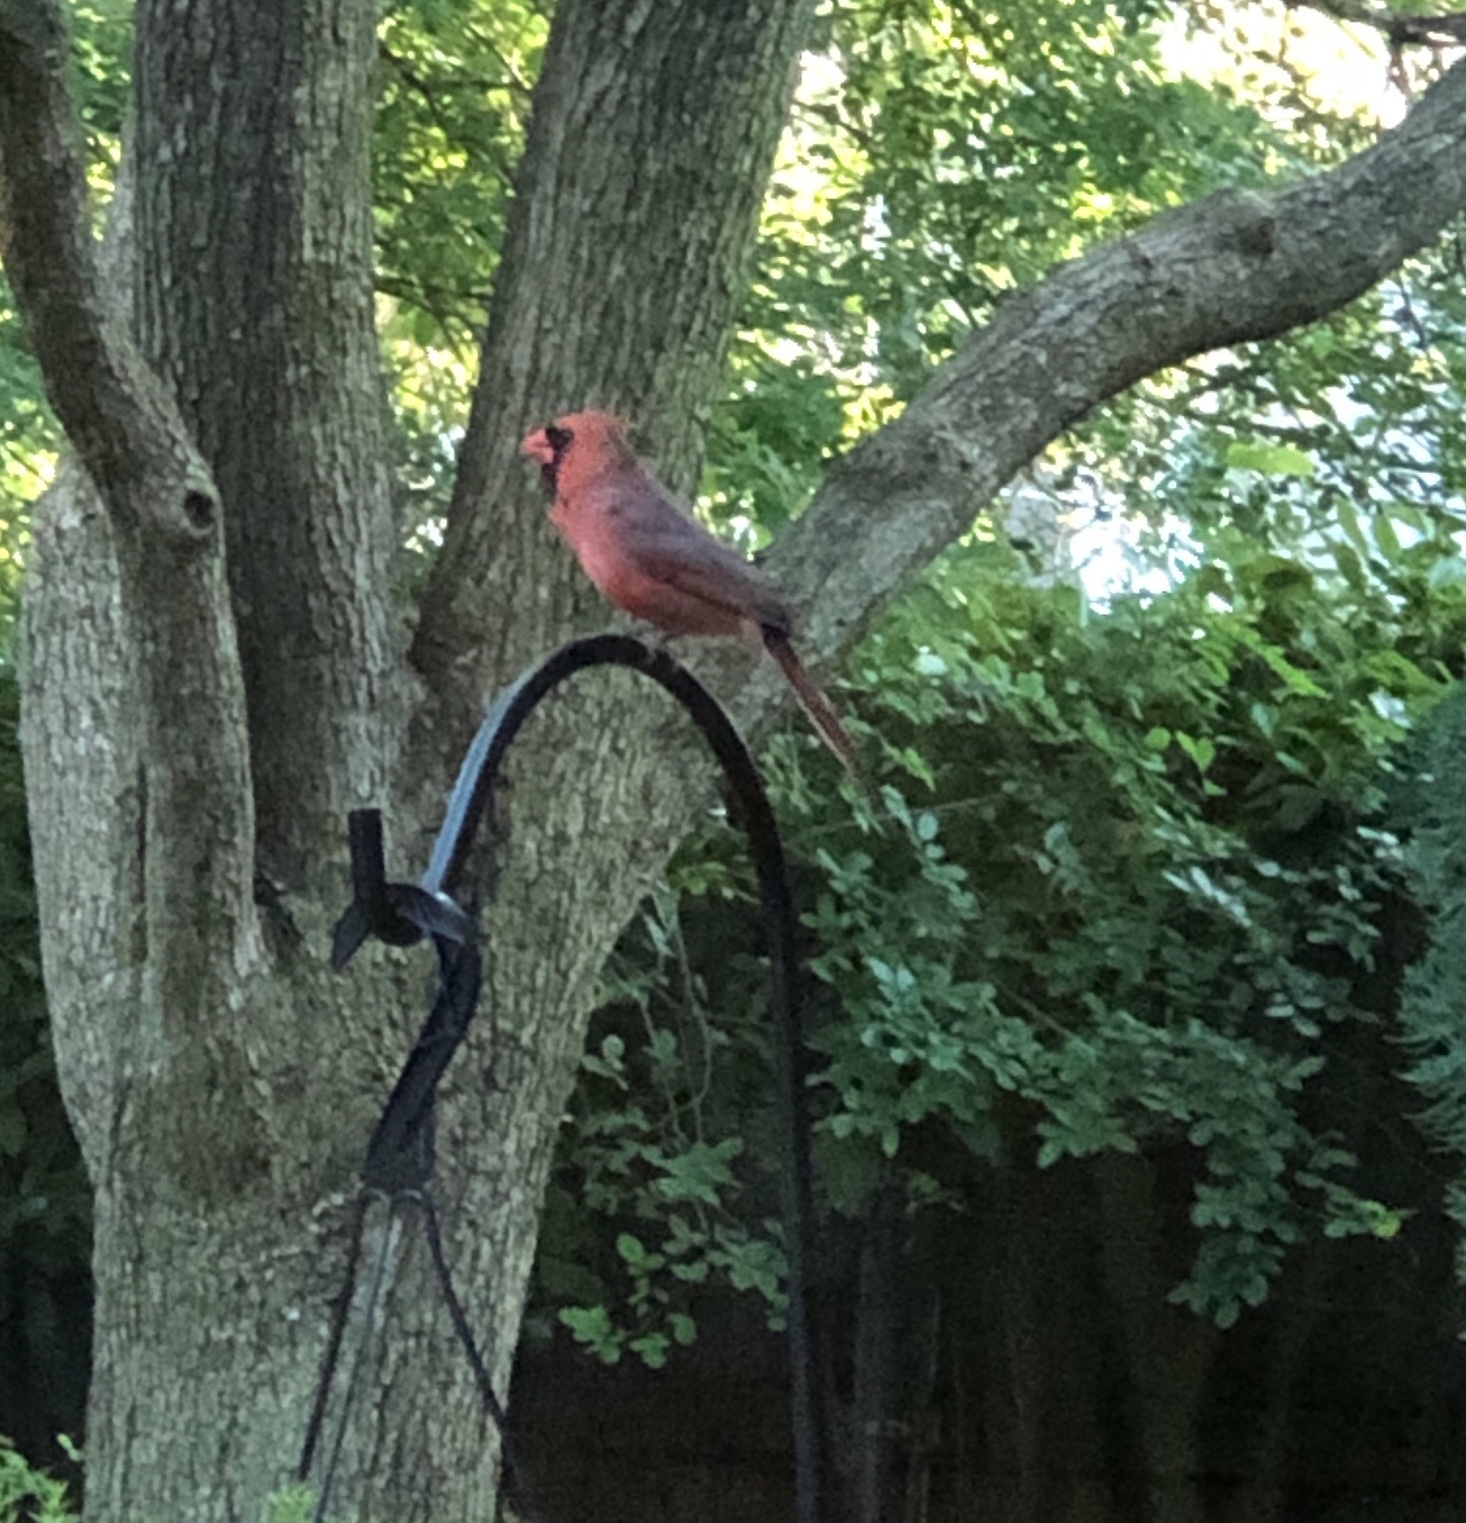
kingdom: Animalia
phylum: Chordata
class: Aves
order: Passeriformes
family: Cardinalidae
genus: Cardinalis
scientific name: Cardinalis cardinalis
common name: Northern cardinal
